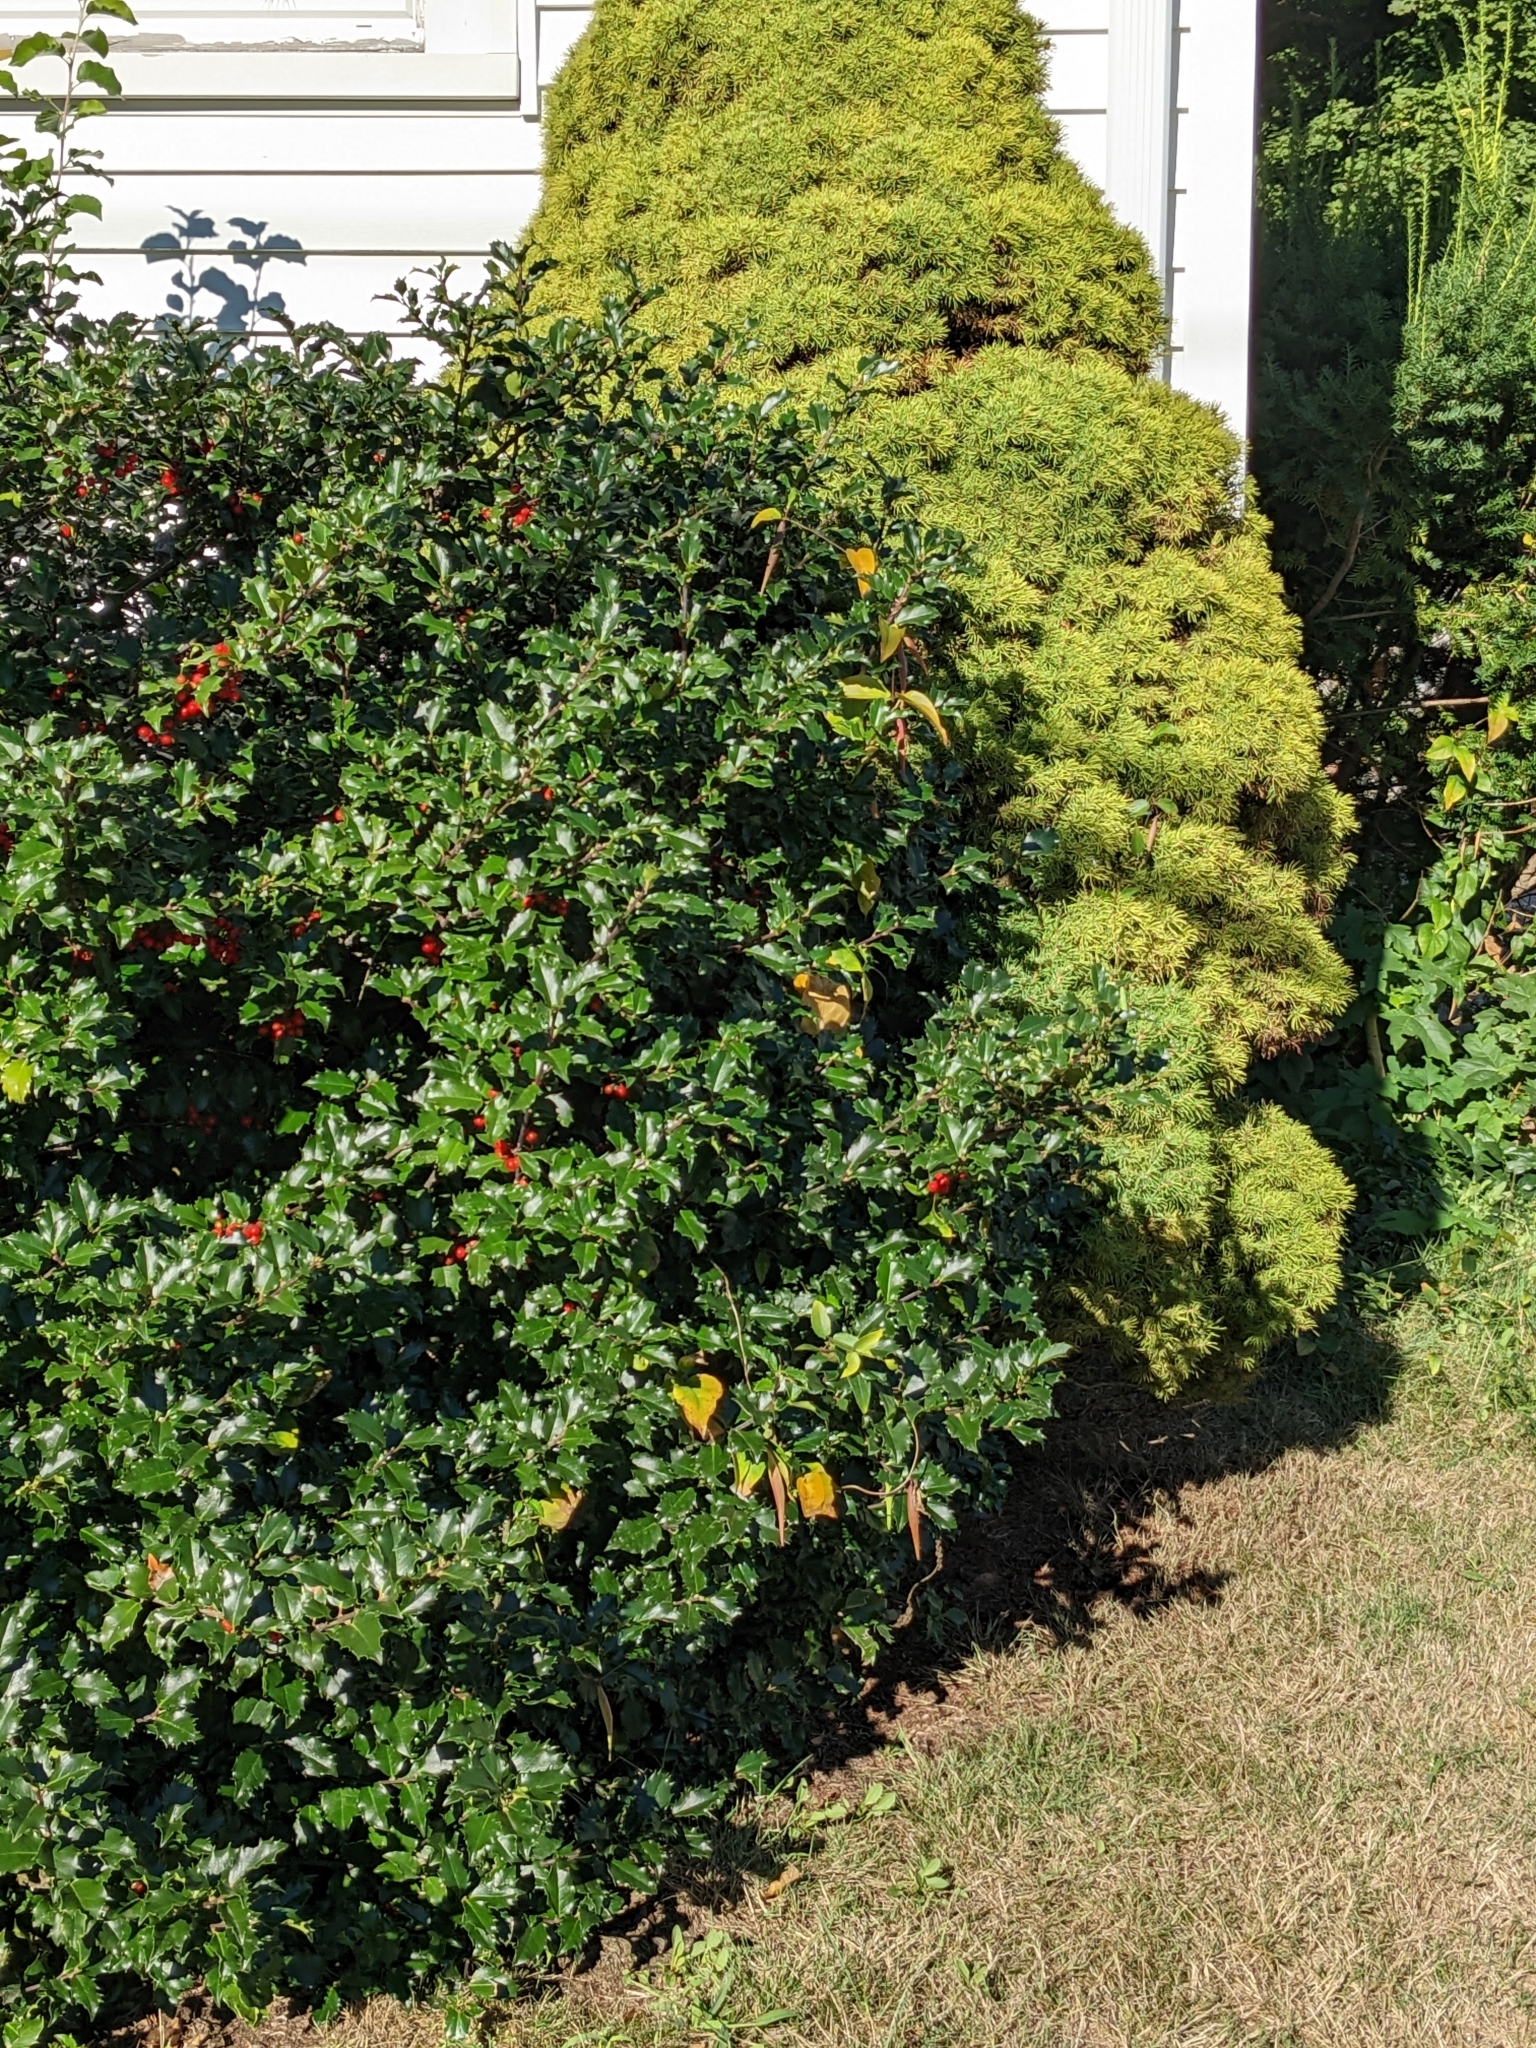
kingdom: Plantae
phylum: Tracheophyta
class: Magnoliopsida
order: Gentianales
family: Apocynaceae
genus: Vincetoxicum
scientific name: Vincetoxicum nigrum
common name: Black swallow-wort
